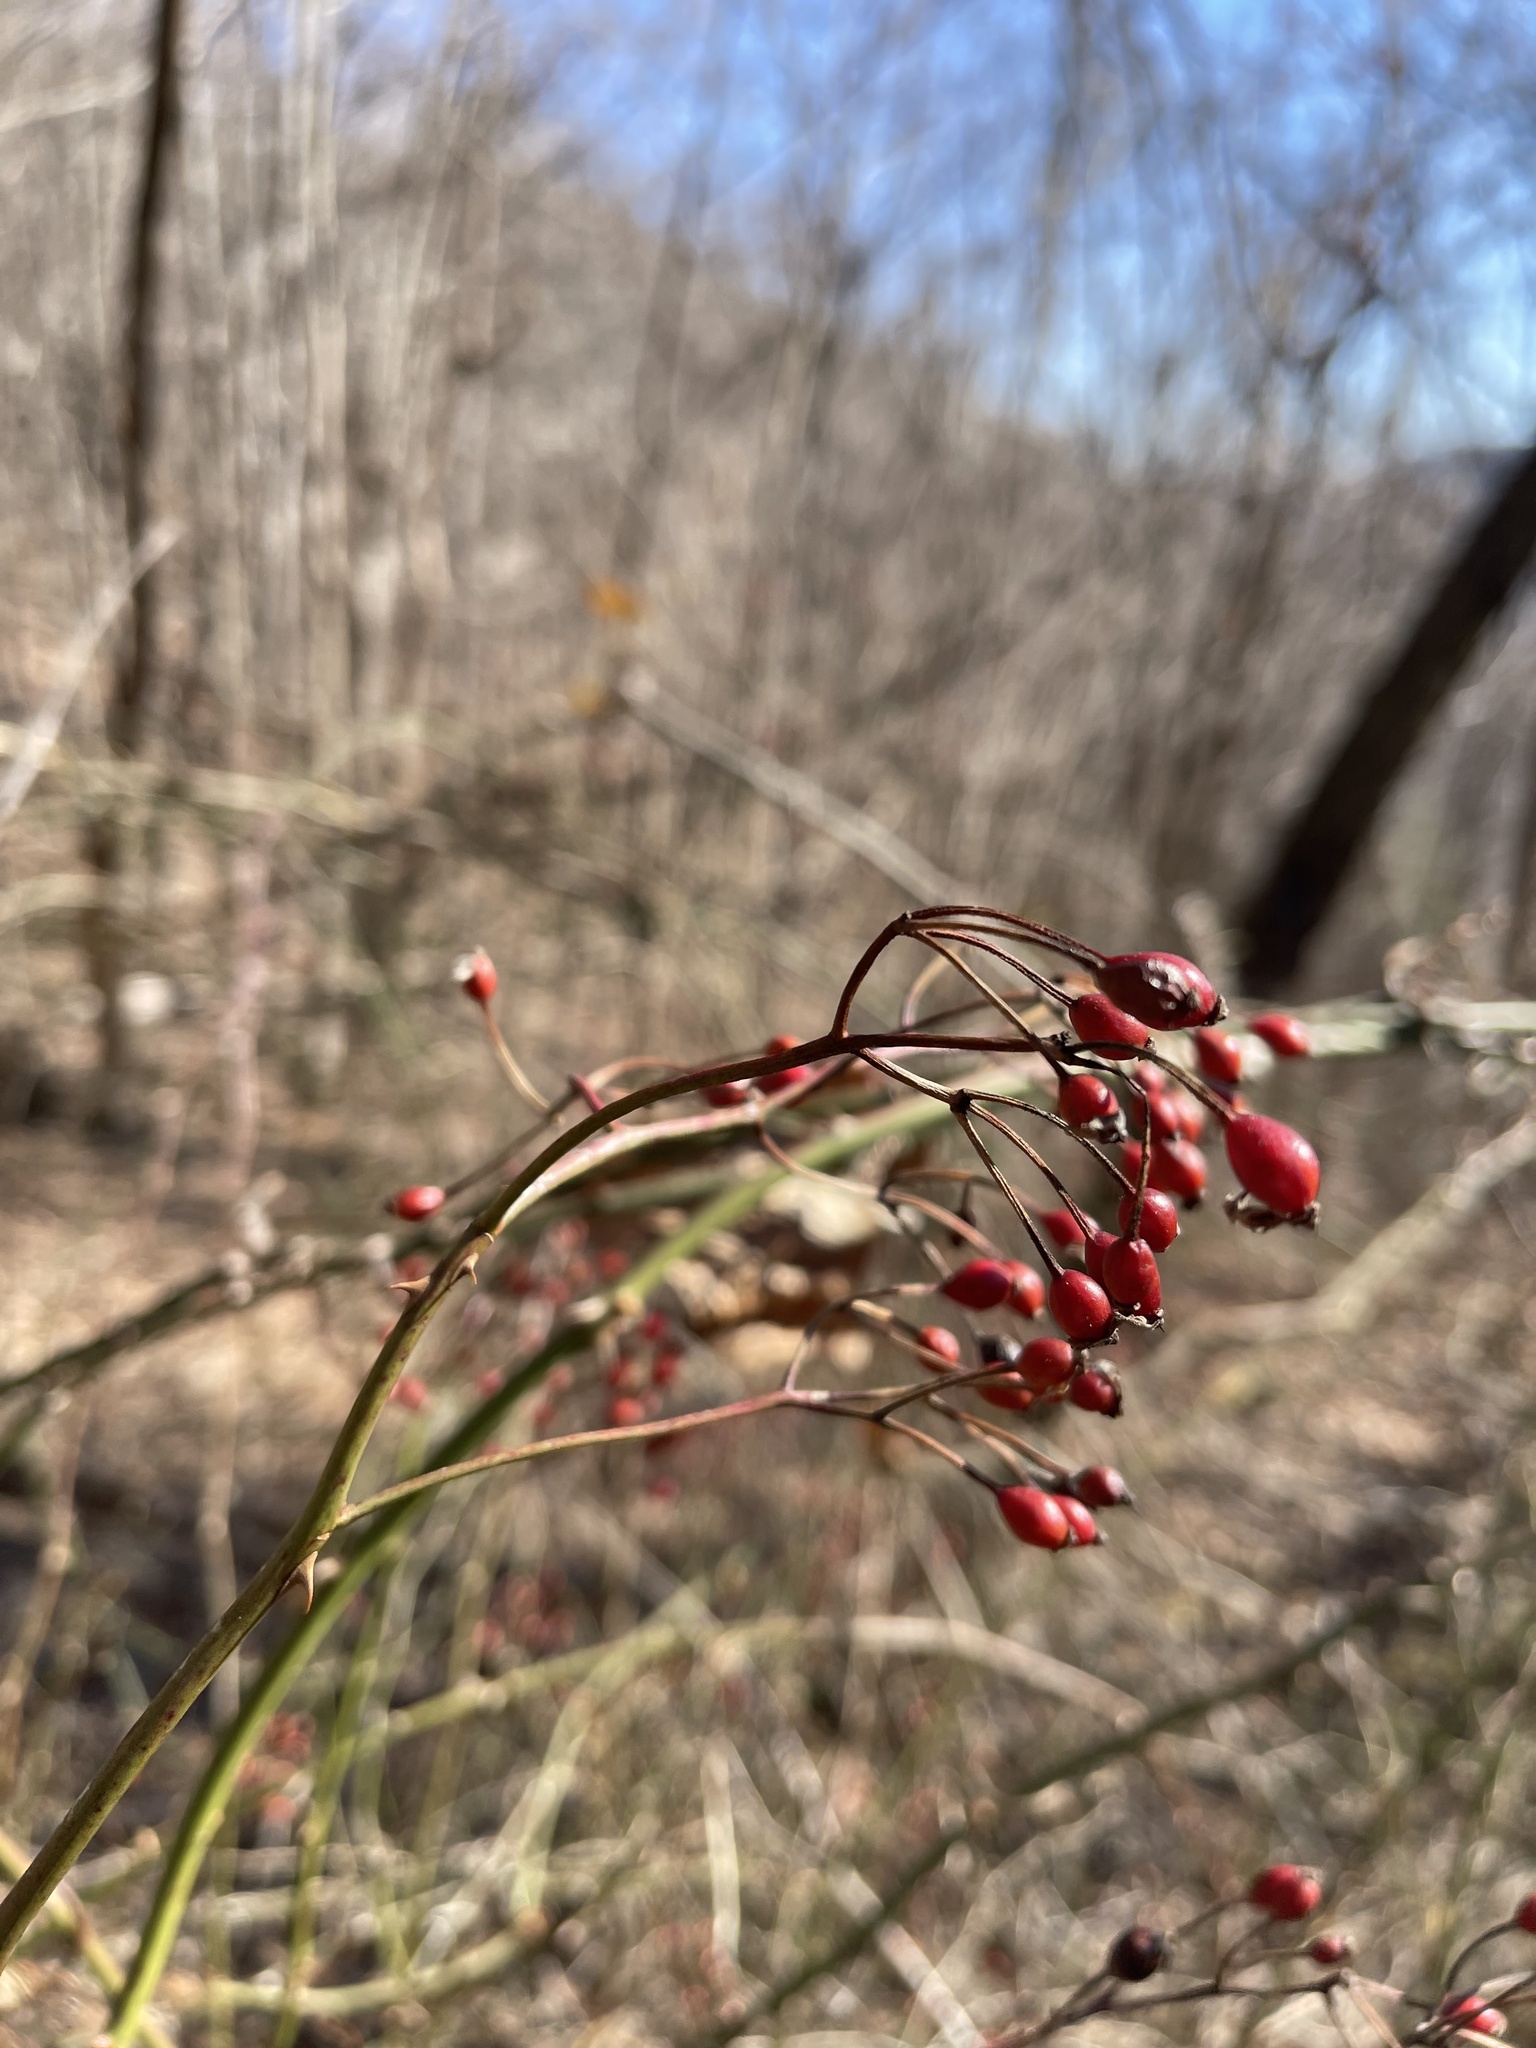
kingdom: Plantae
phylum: Tracheophyta
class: Magnoliopsida
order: Rosales
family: Rosaceae
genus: Rosa
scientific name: Rosa multiflora
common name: Multiflora rose
